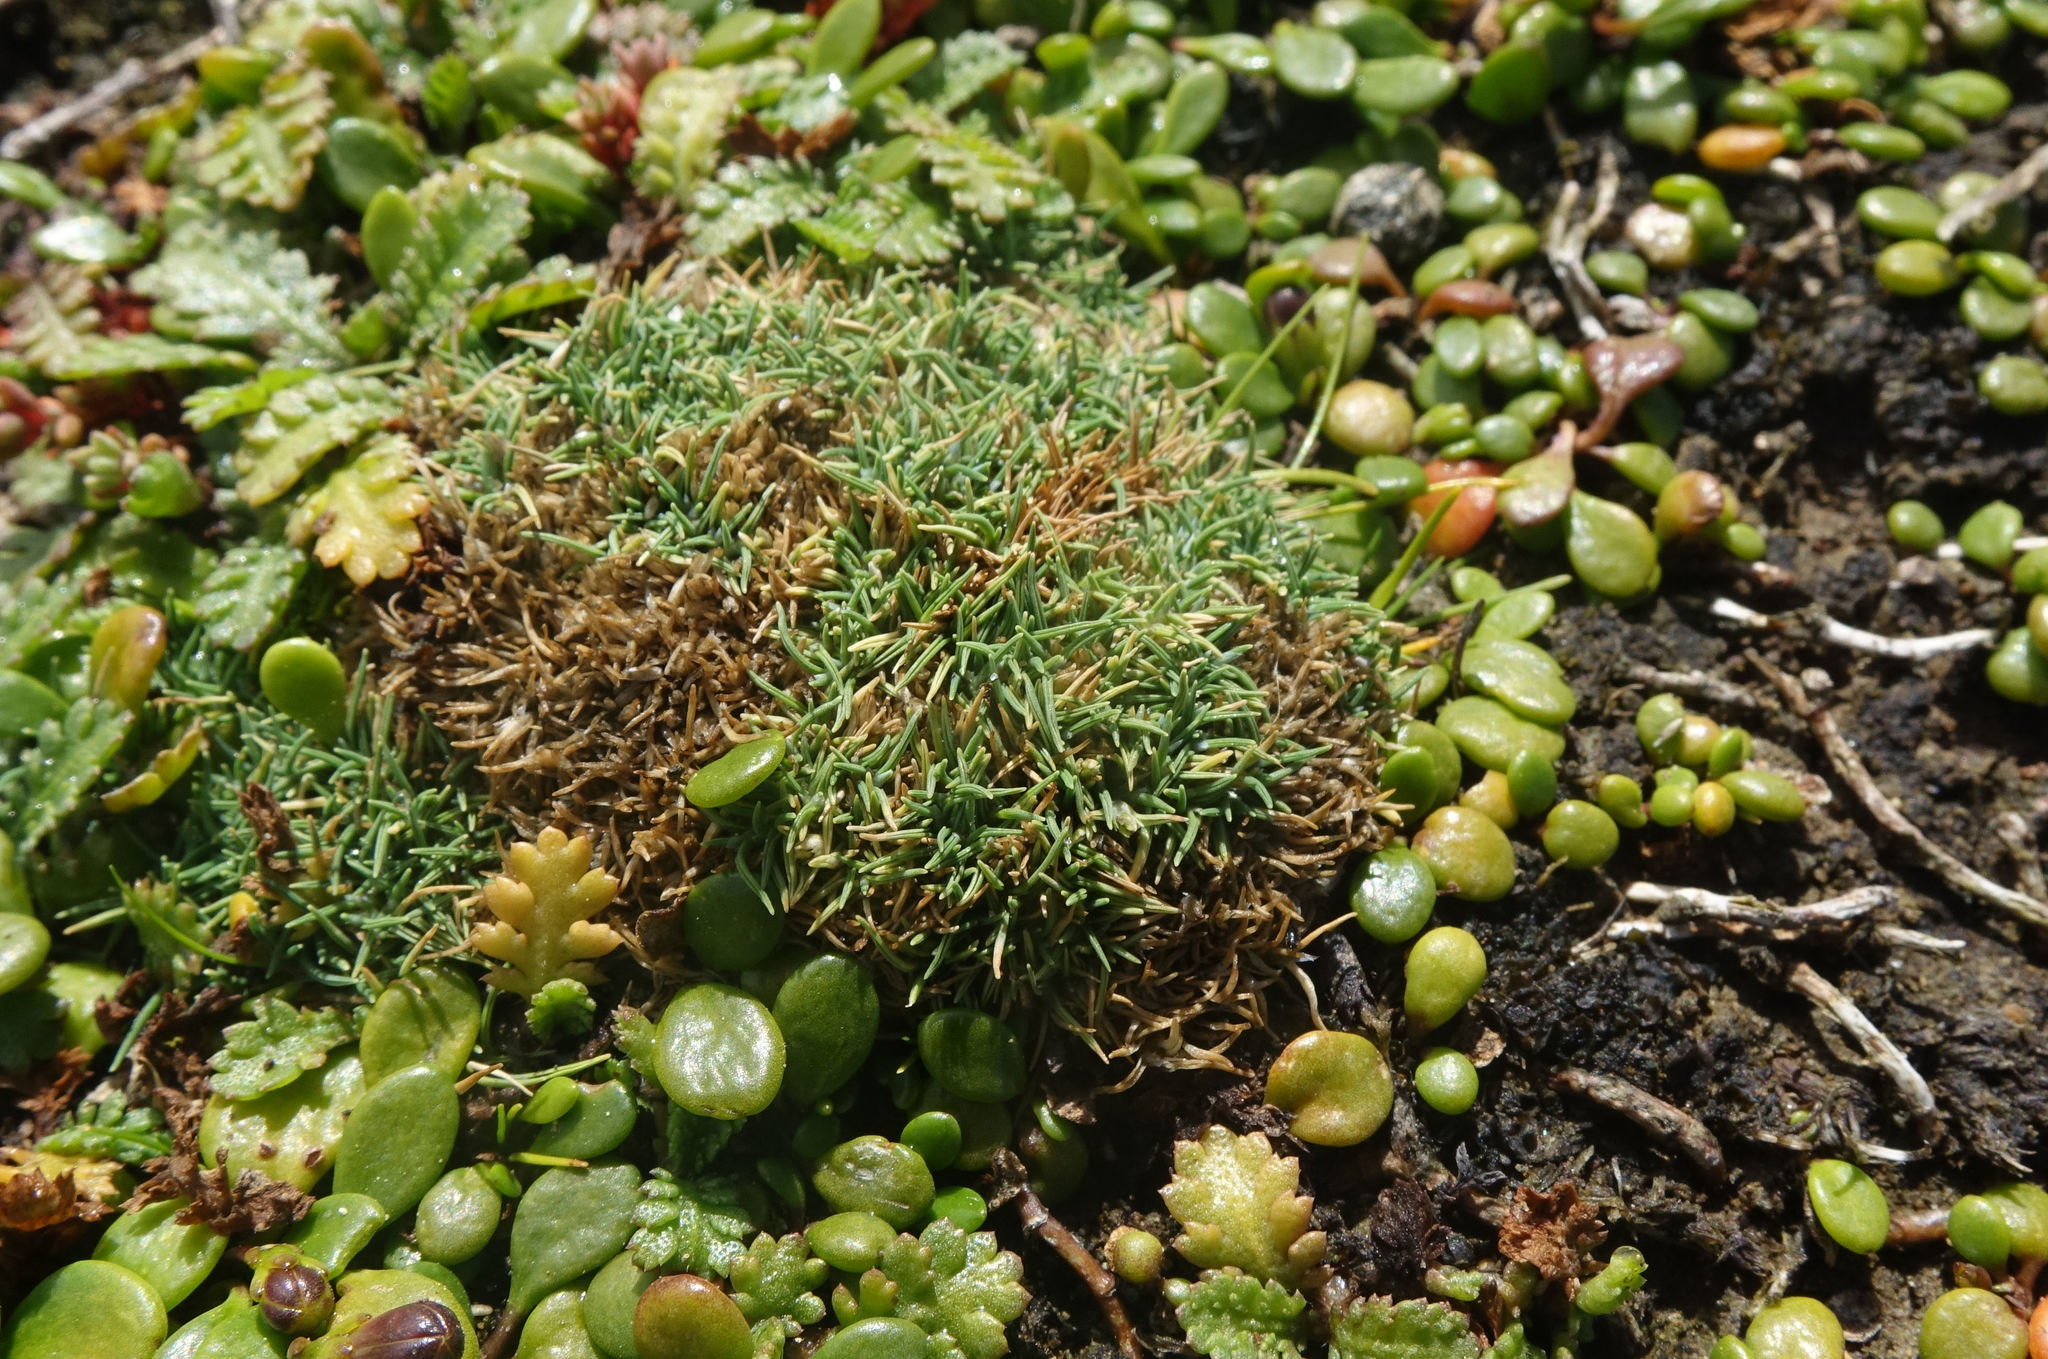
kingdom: Plantae
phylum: Tracheophyta
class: Liliopsida
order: Poales
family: Poaceae
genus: Agrostis
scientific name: Agrostis muscosa
